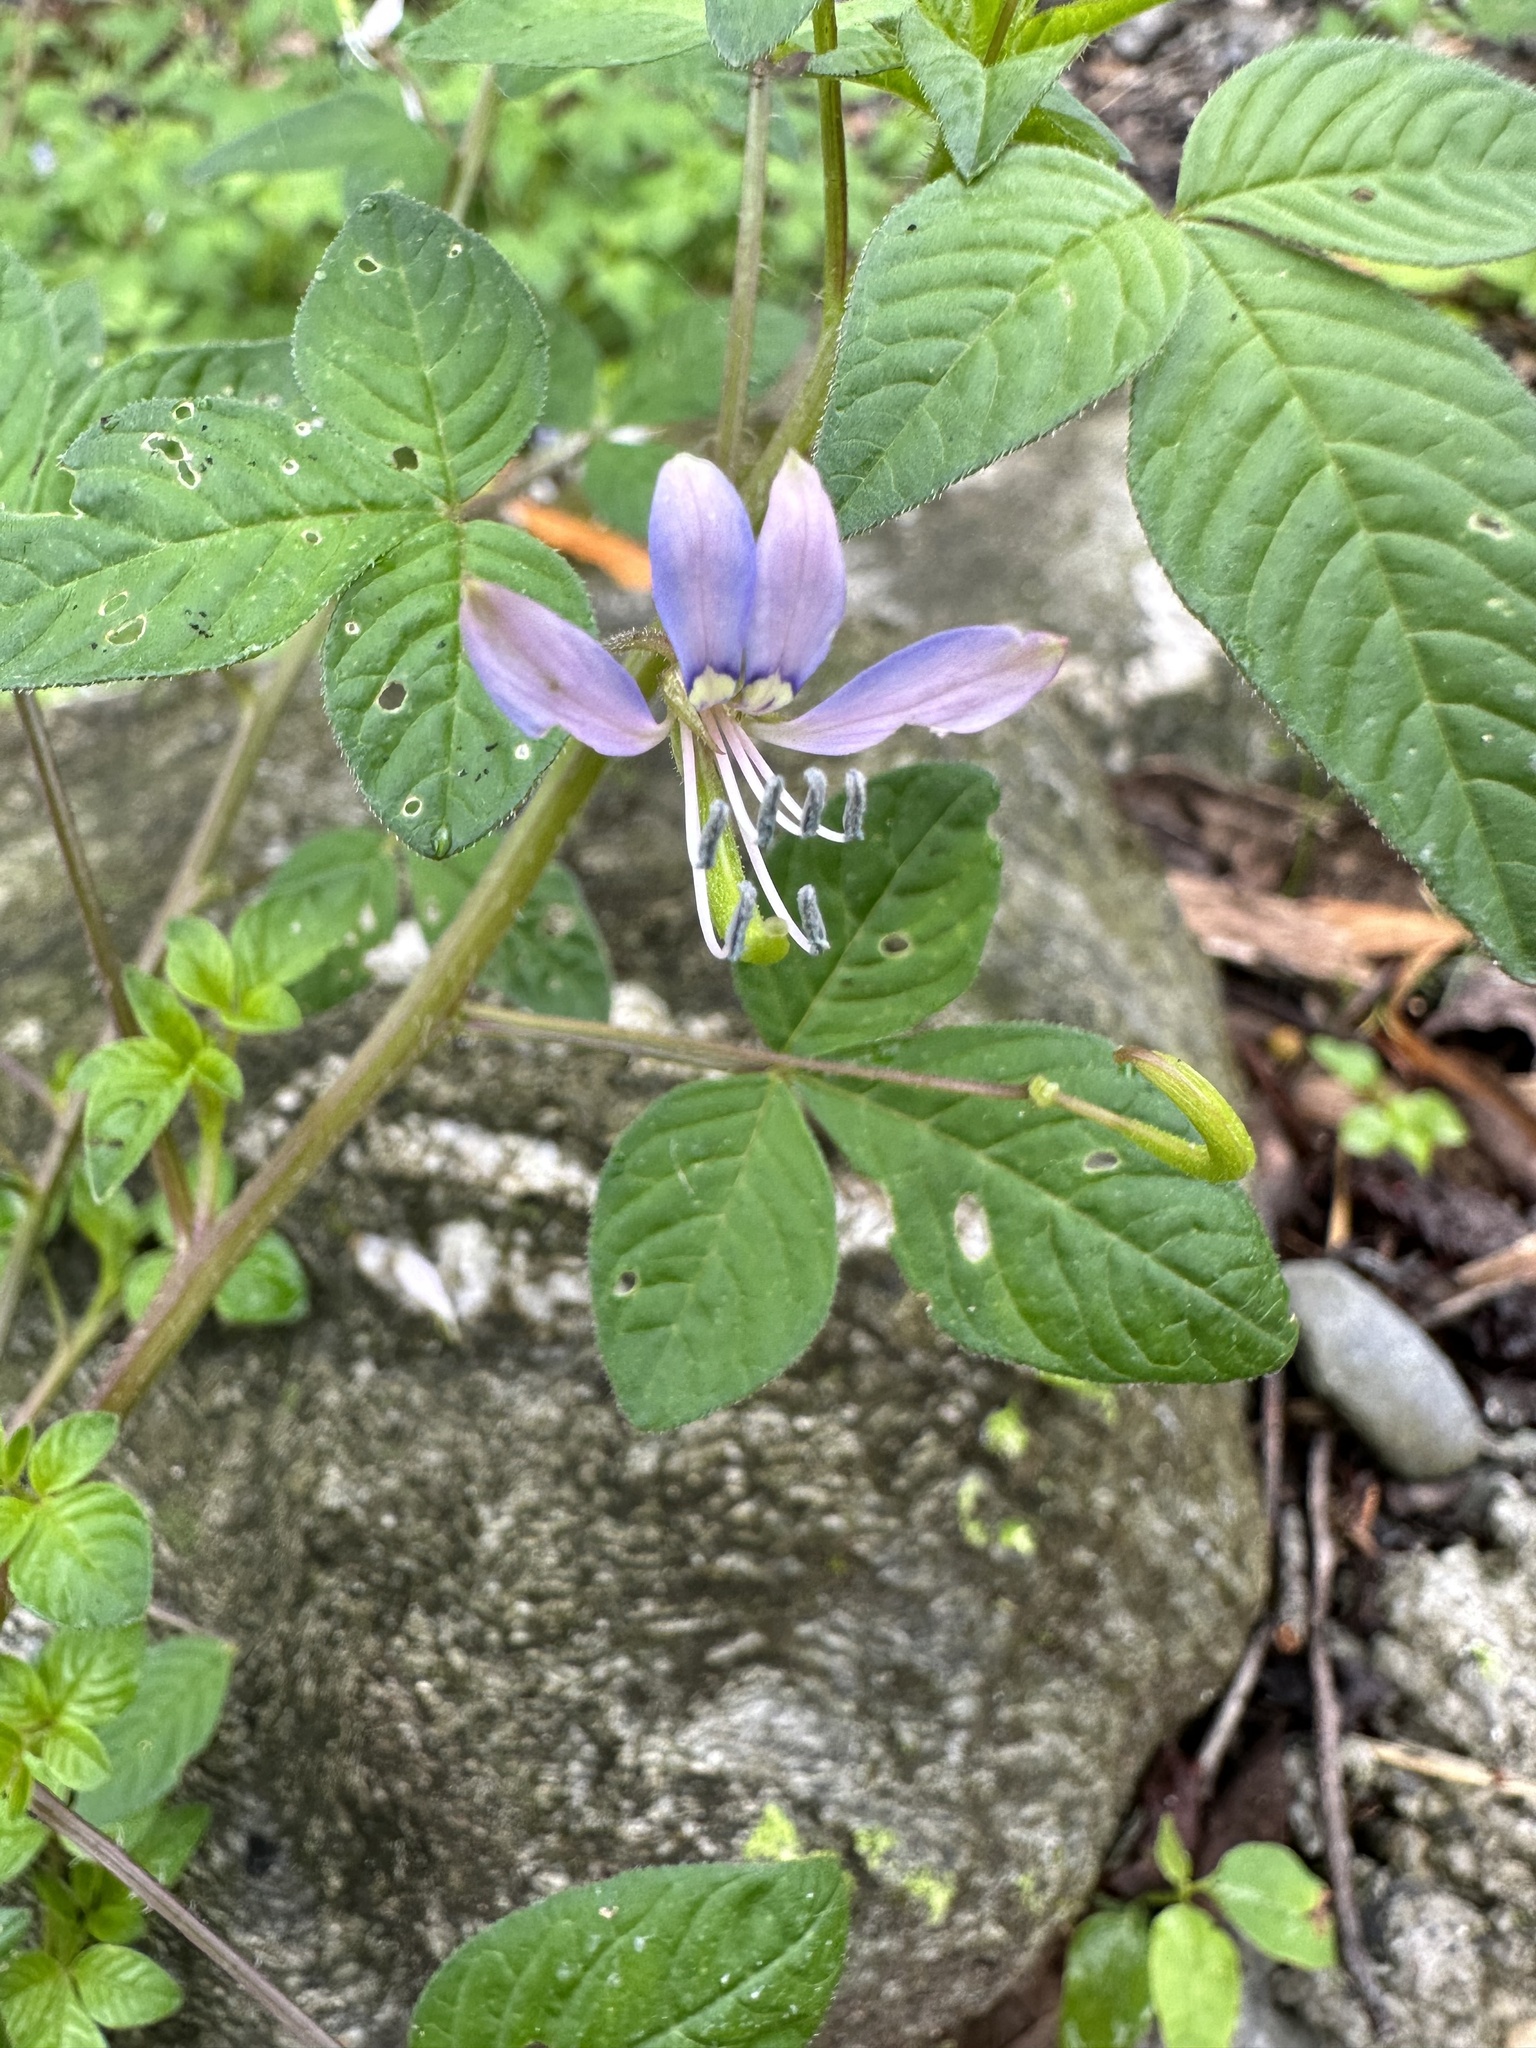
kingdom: Plantae
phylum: Tracheophyta
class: Magnoliopsida
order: Brassicales
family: Cleomaceae
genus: Sieruela
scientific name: Sieruela rutidosperma
